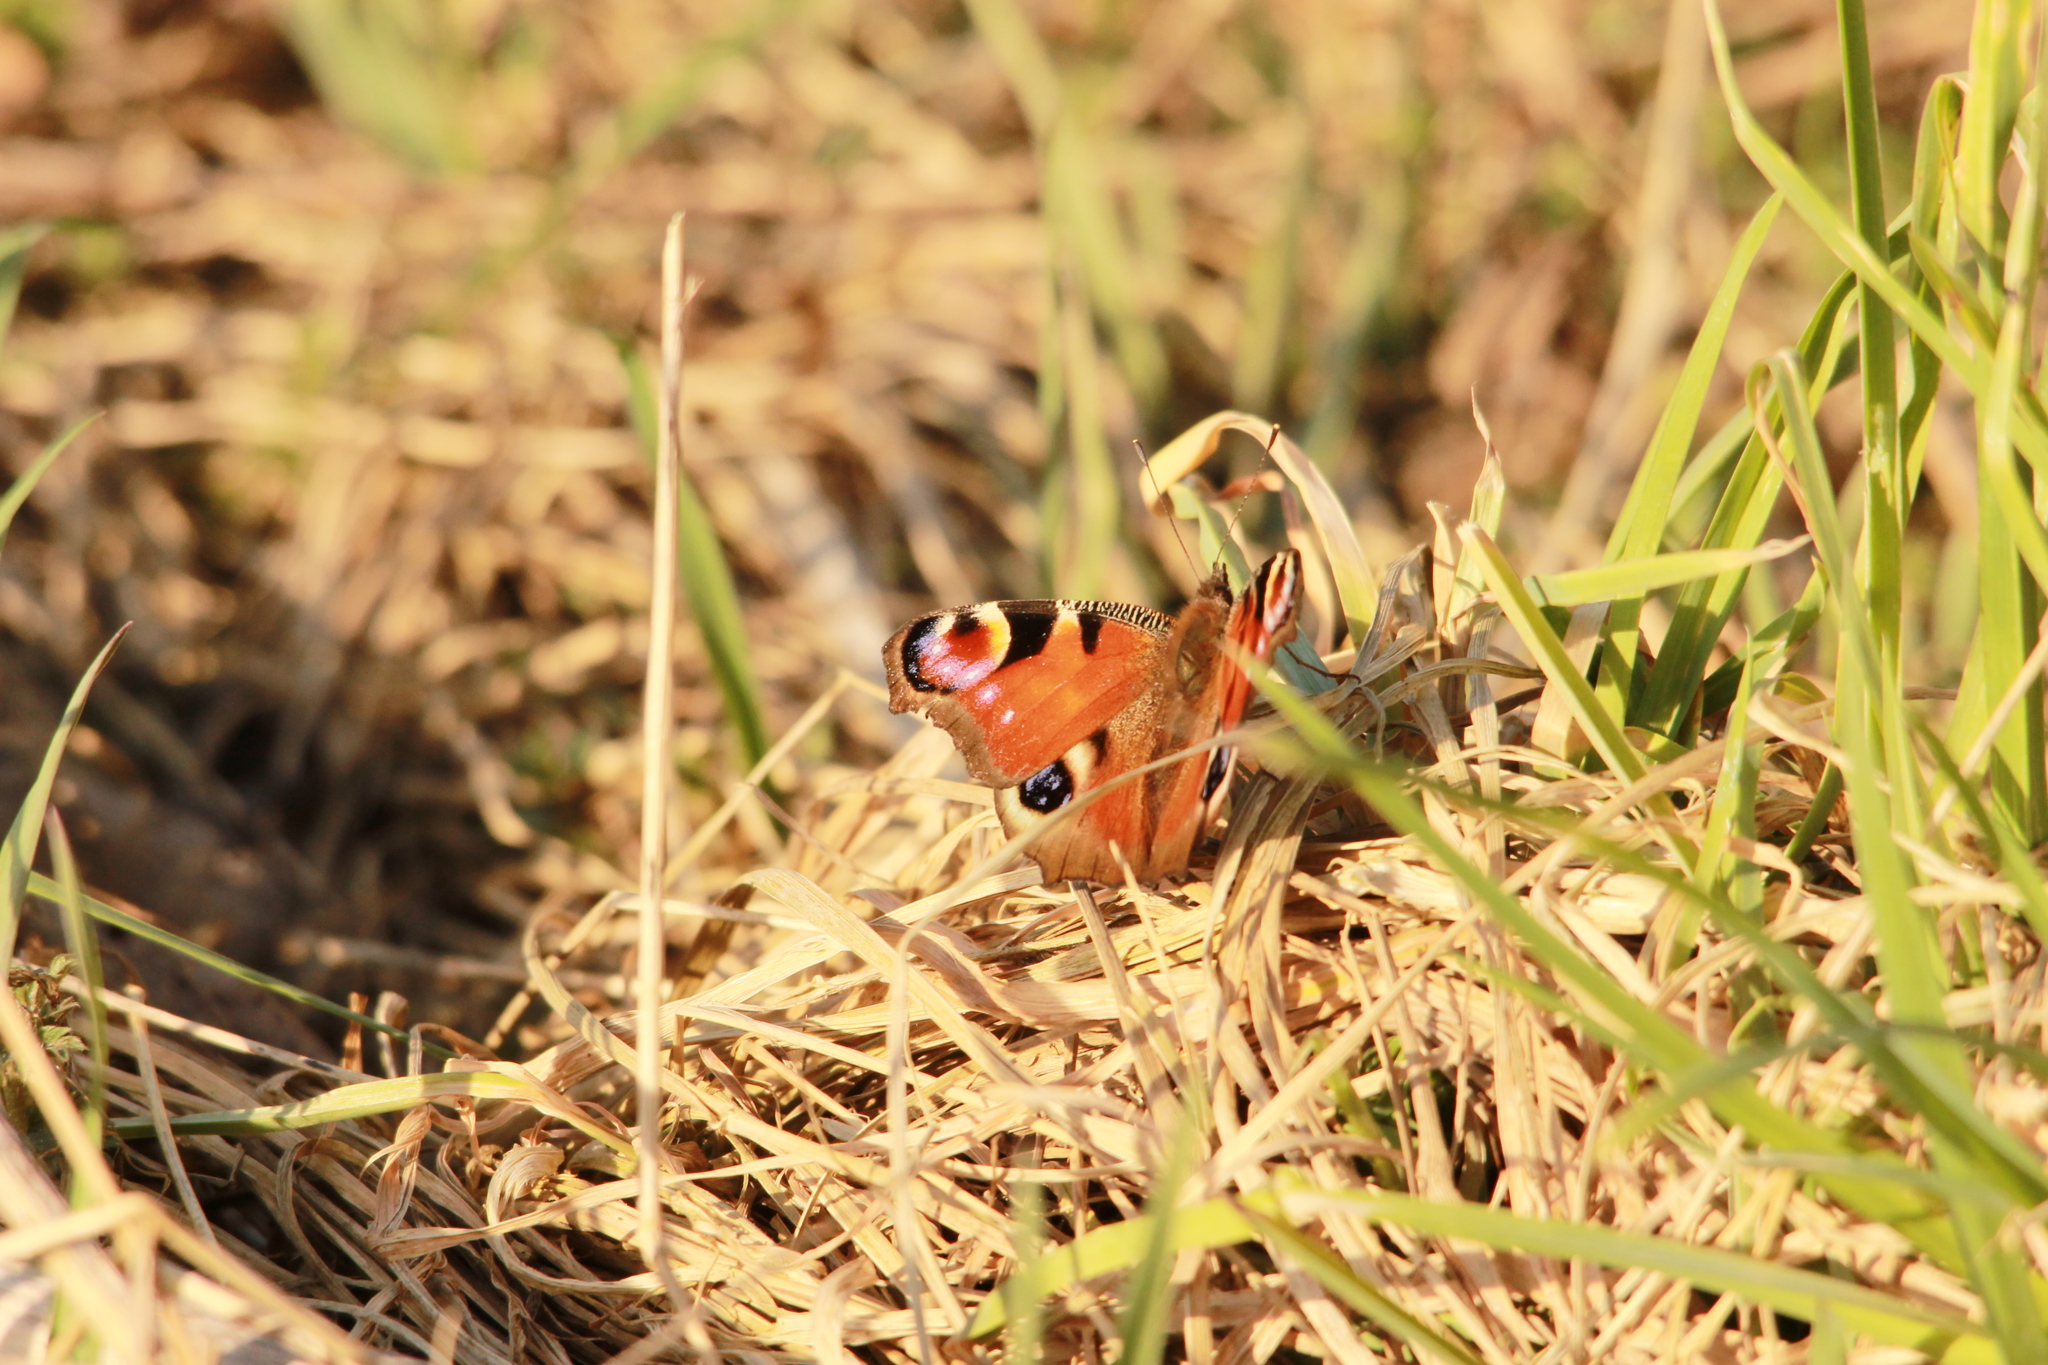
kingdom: Animalia
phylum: Arthropoda
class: Insecta
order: Lepidoptera
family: Nymphalidae
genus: Aglais
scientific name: Aglais io
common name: Peacock
